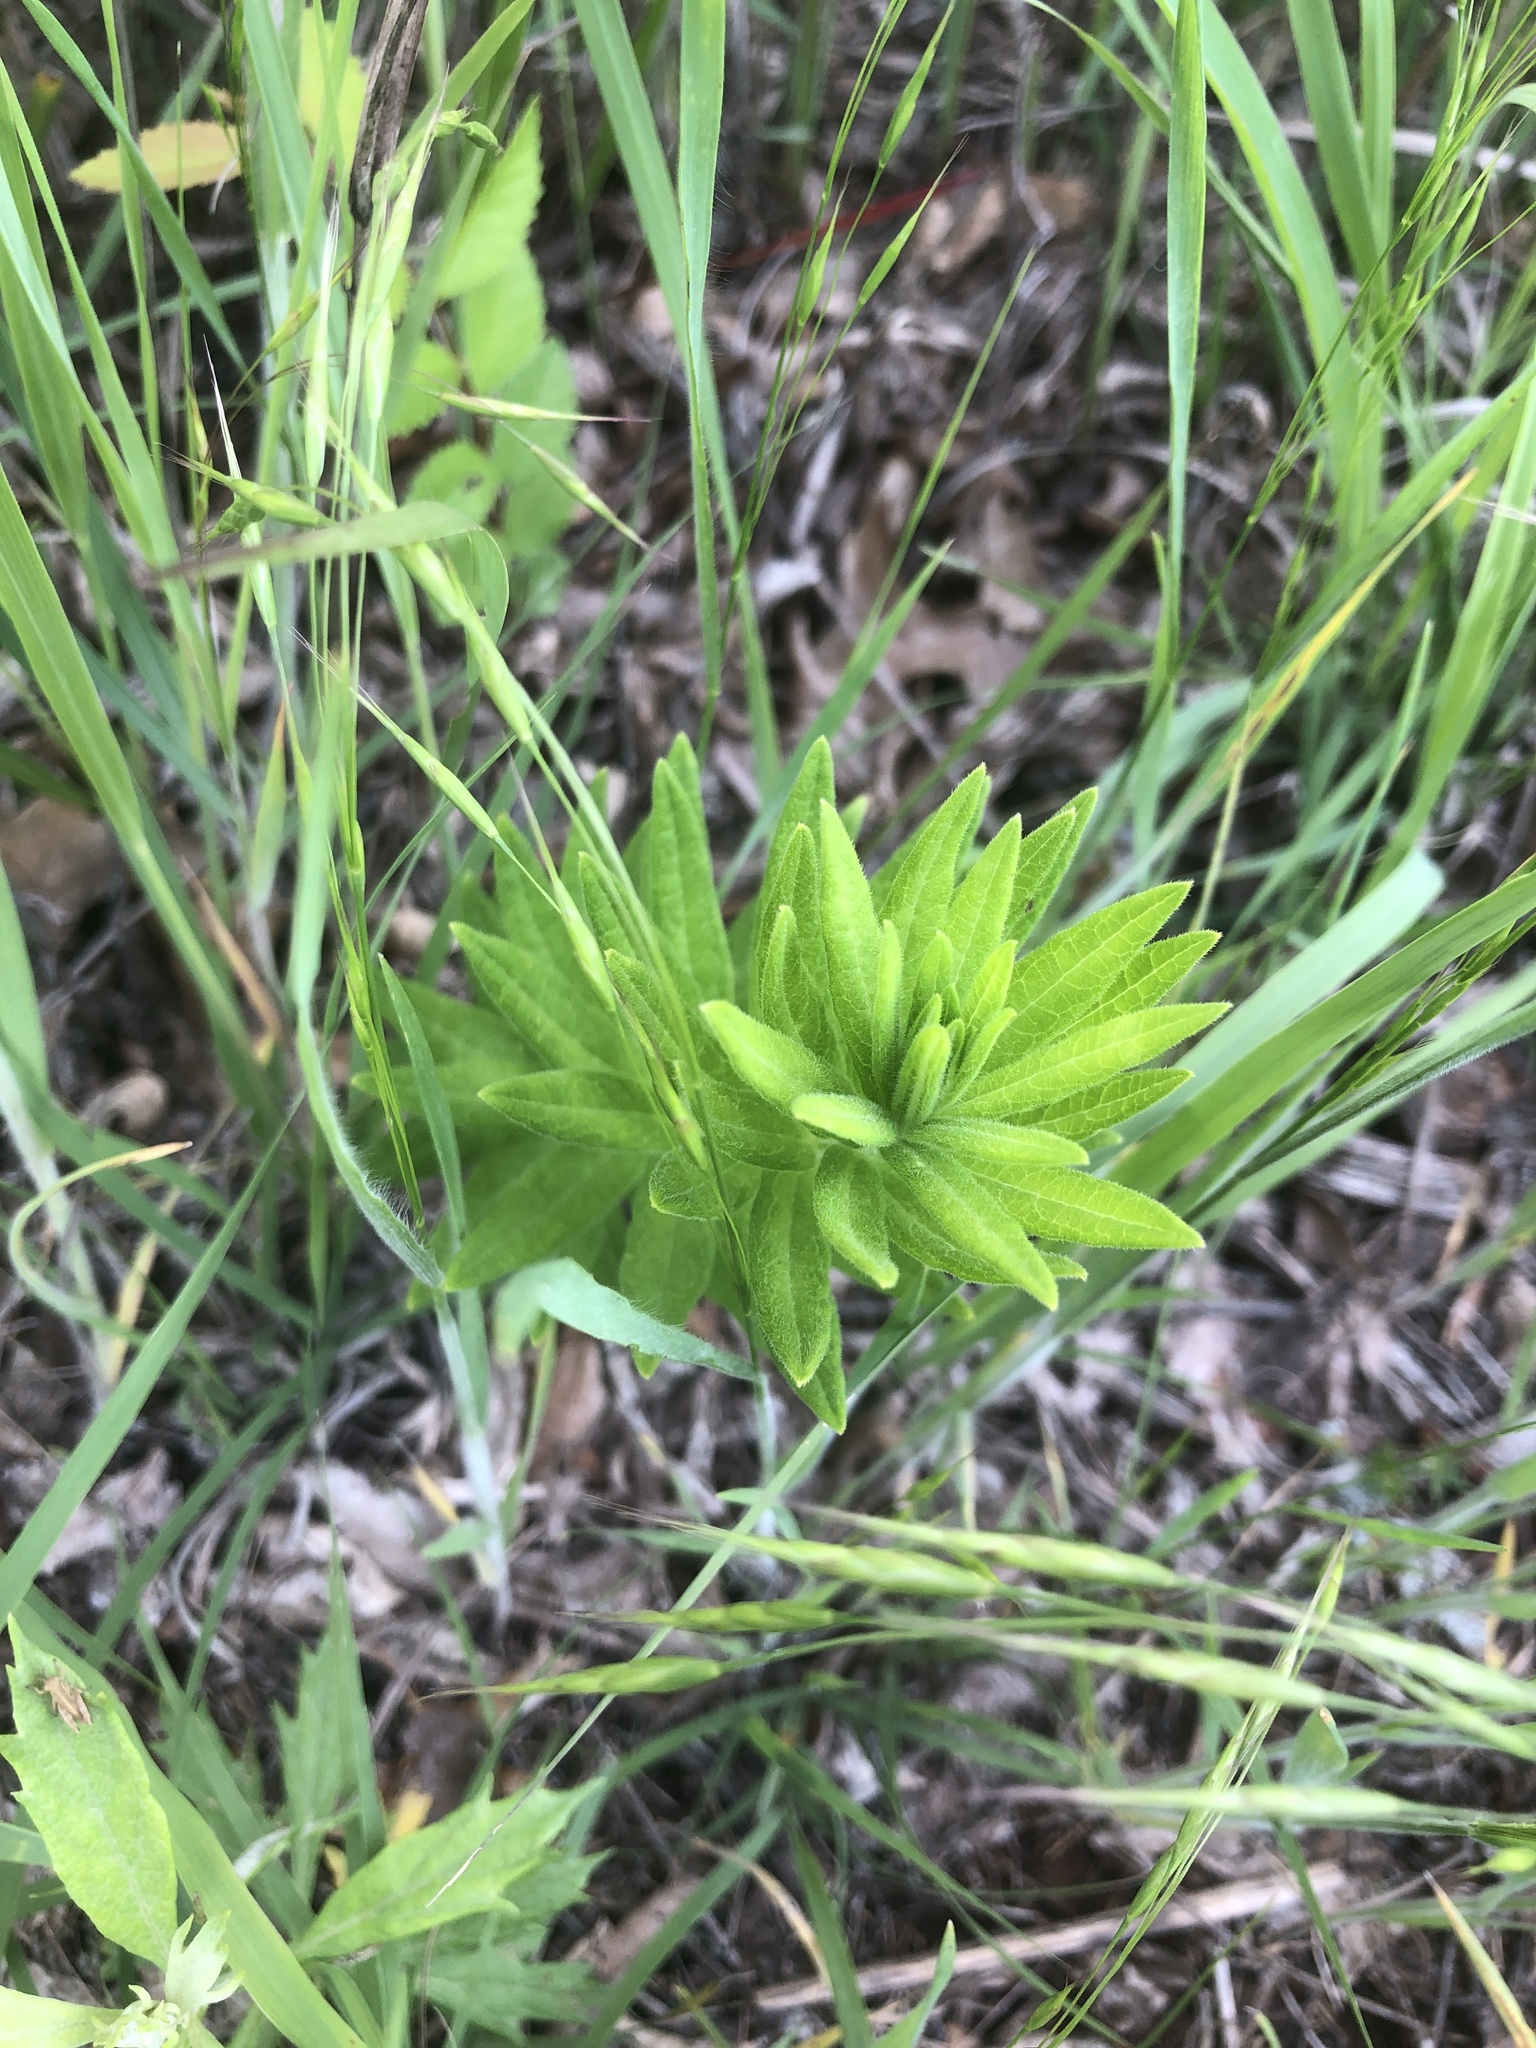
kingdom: Plantae
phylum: Tracheophyta
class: Magnoliopsida
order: Gentianales
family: Apocynaceae
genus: Asclepias
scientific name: Asclepias tuberosa
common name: Butterfly milkweed
